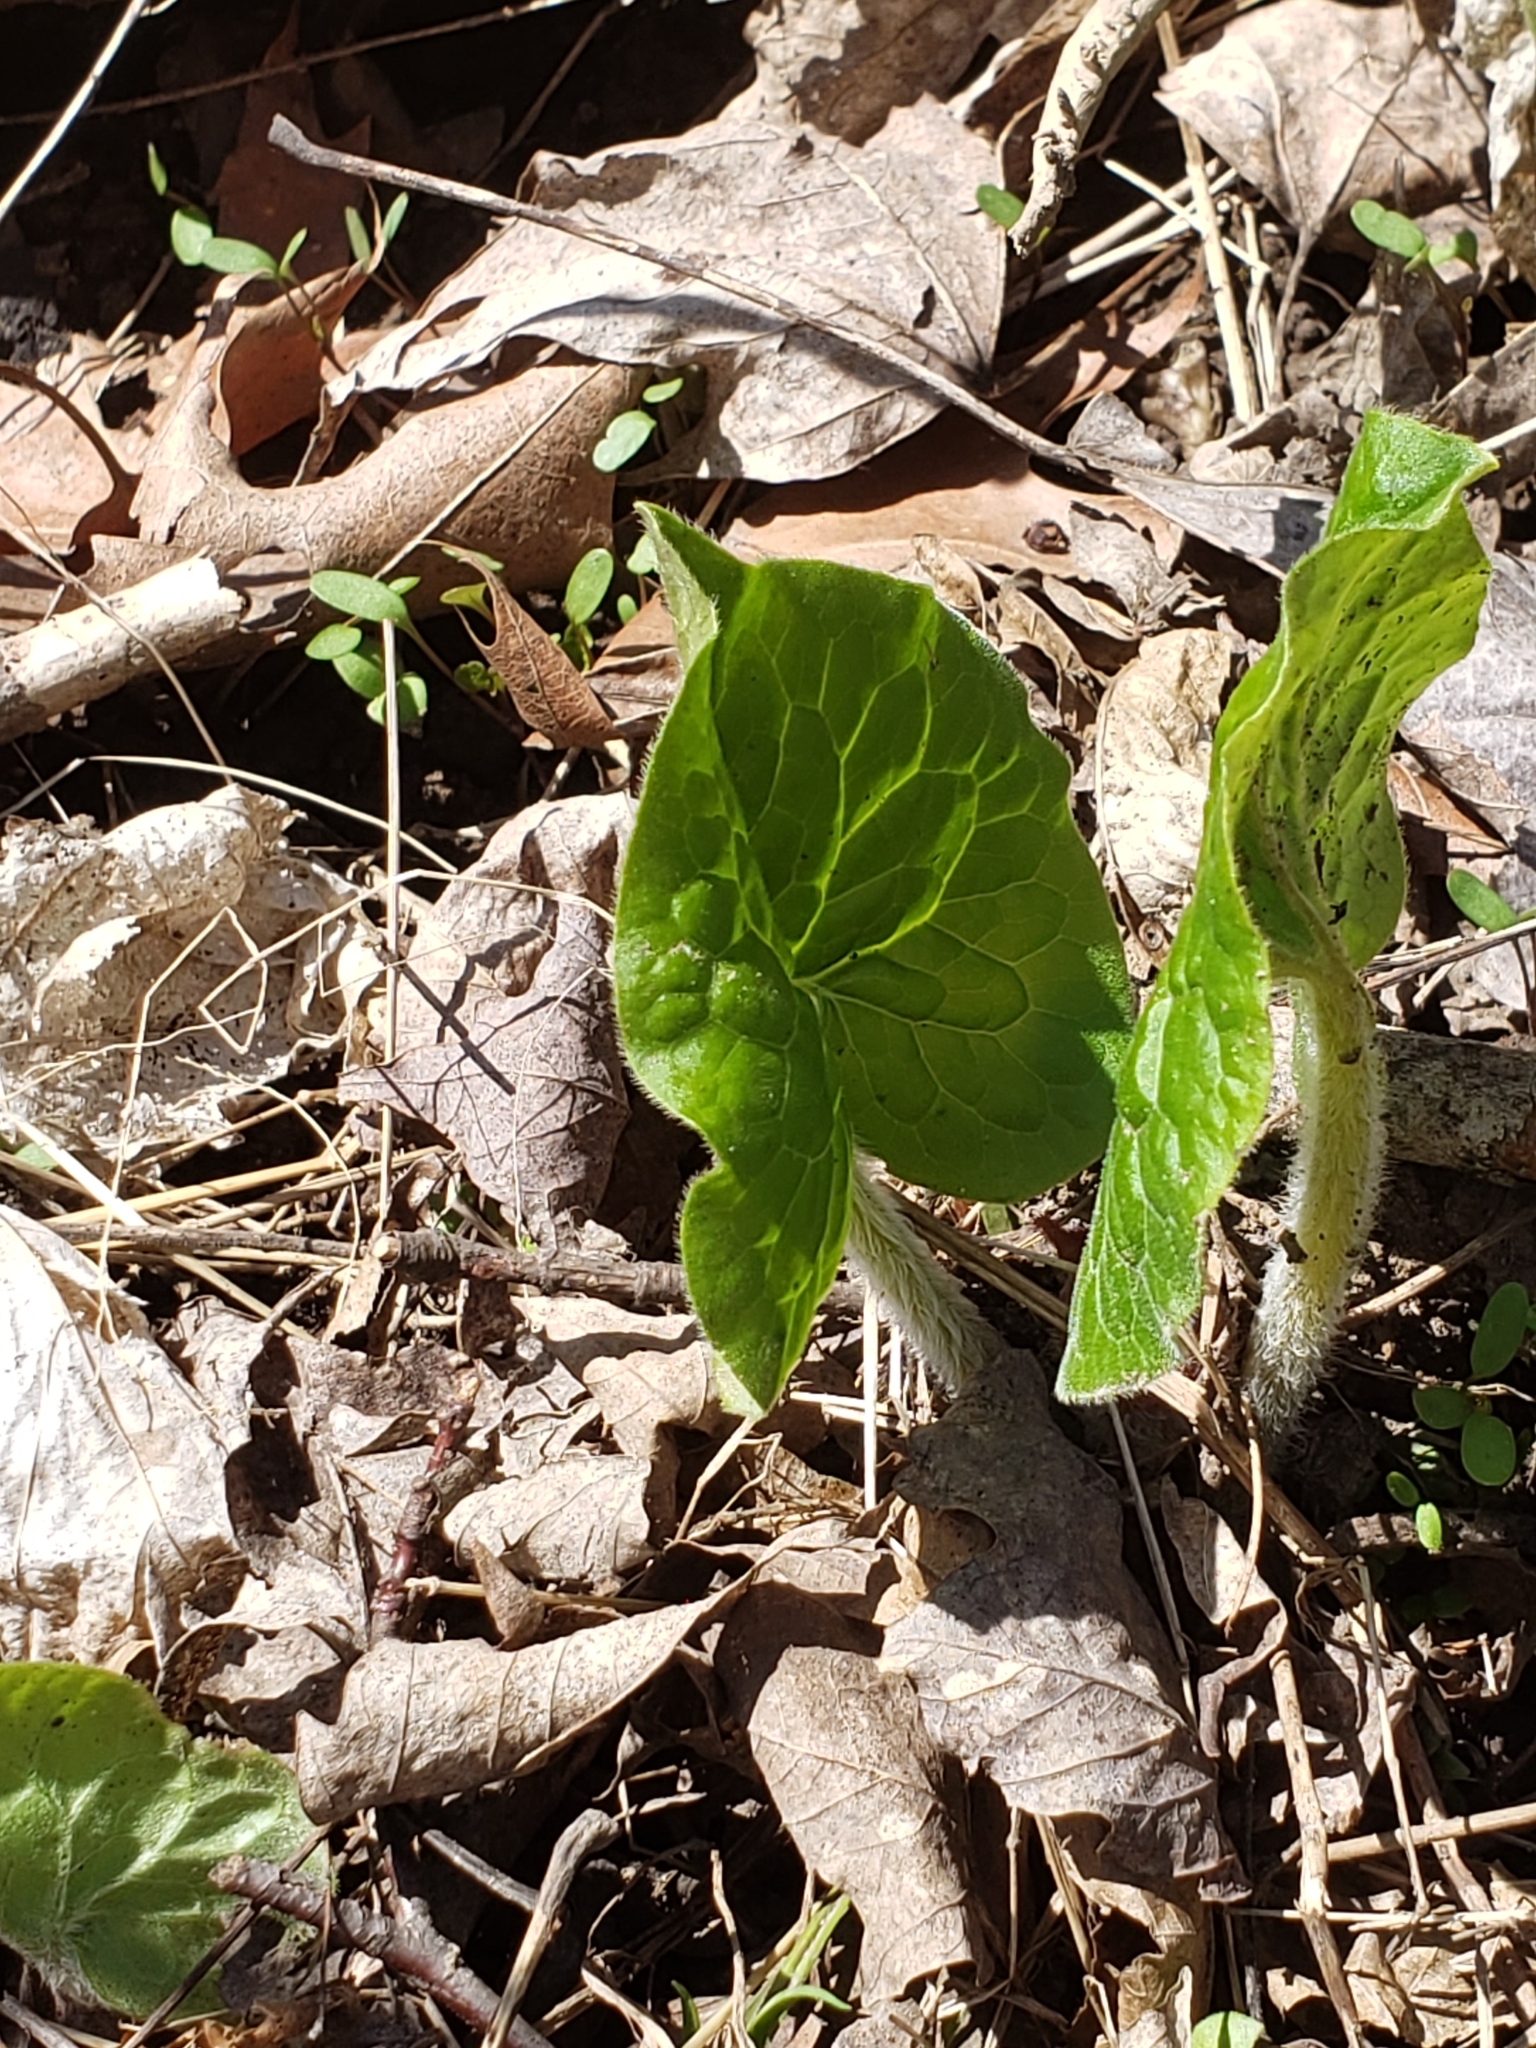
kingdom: Plantae
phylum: Tracheophyta
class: Magnoliopsida
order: Piperales
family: Aristolochiaceae
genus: Asarum
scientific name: Asarum canadense
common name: Wild ginger
